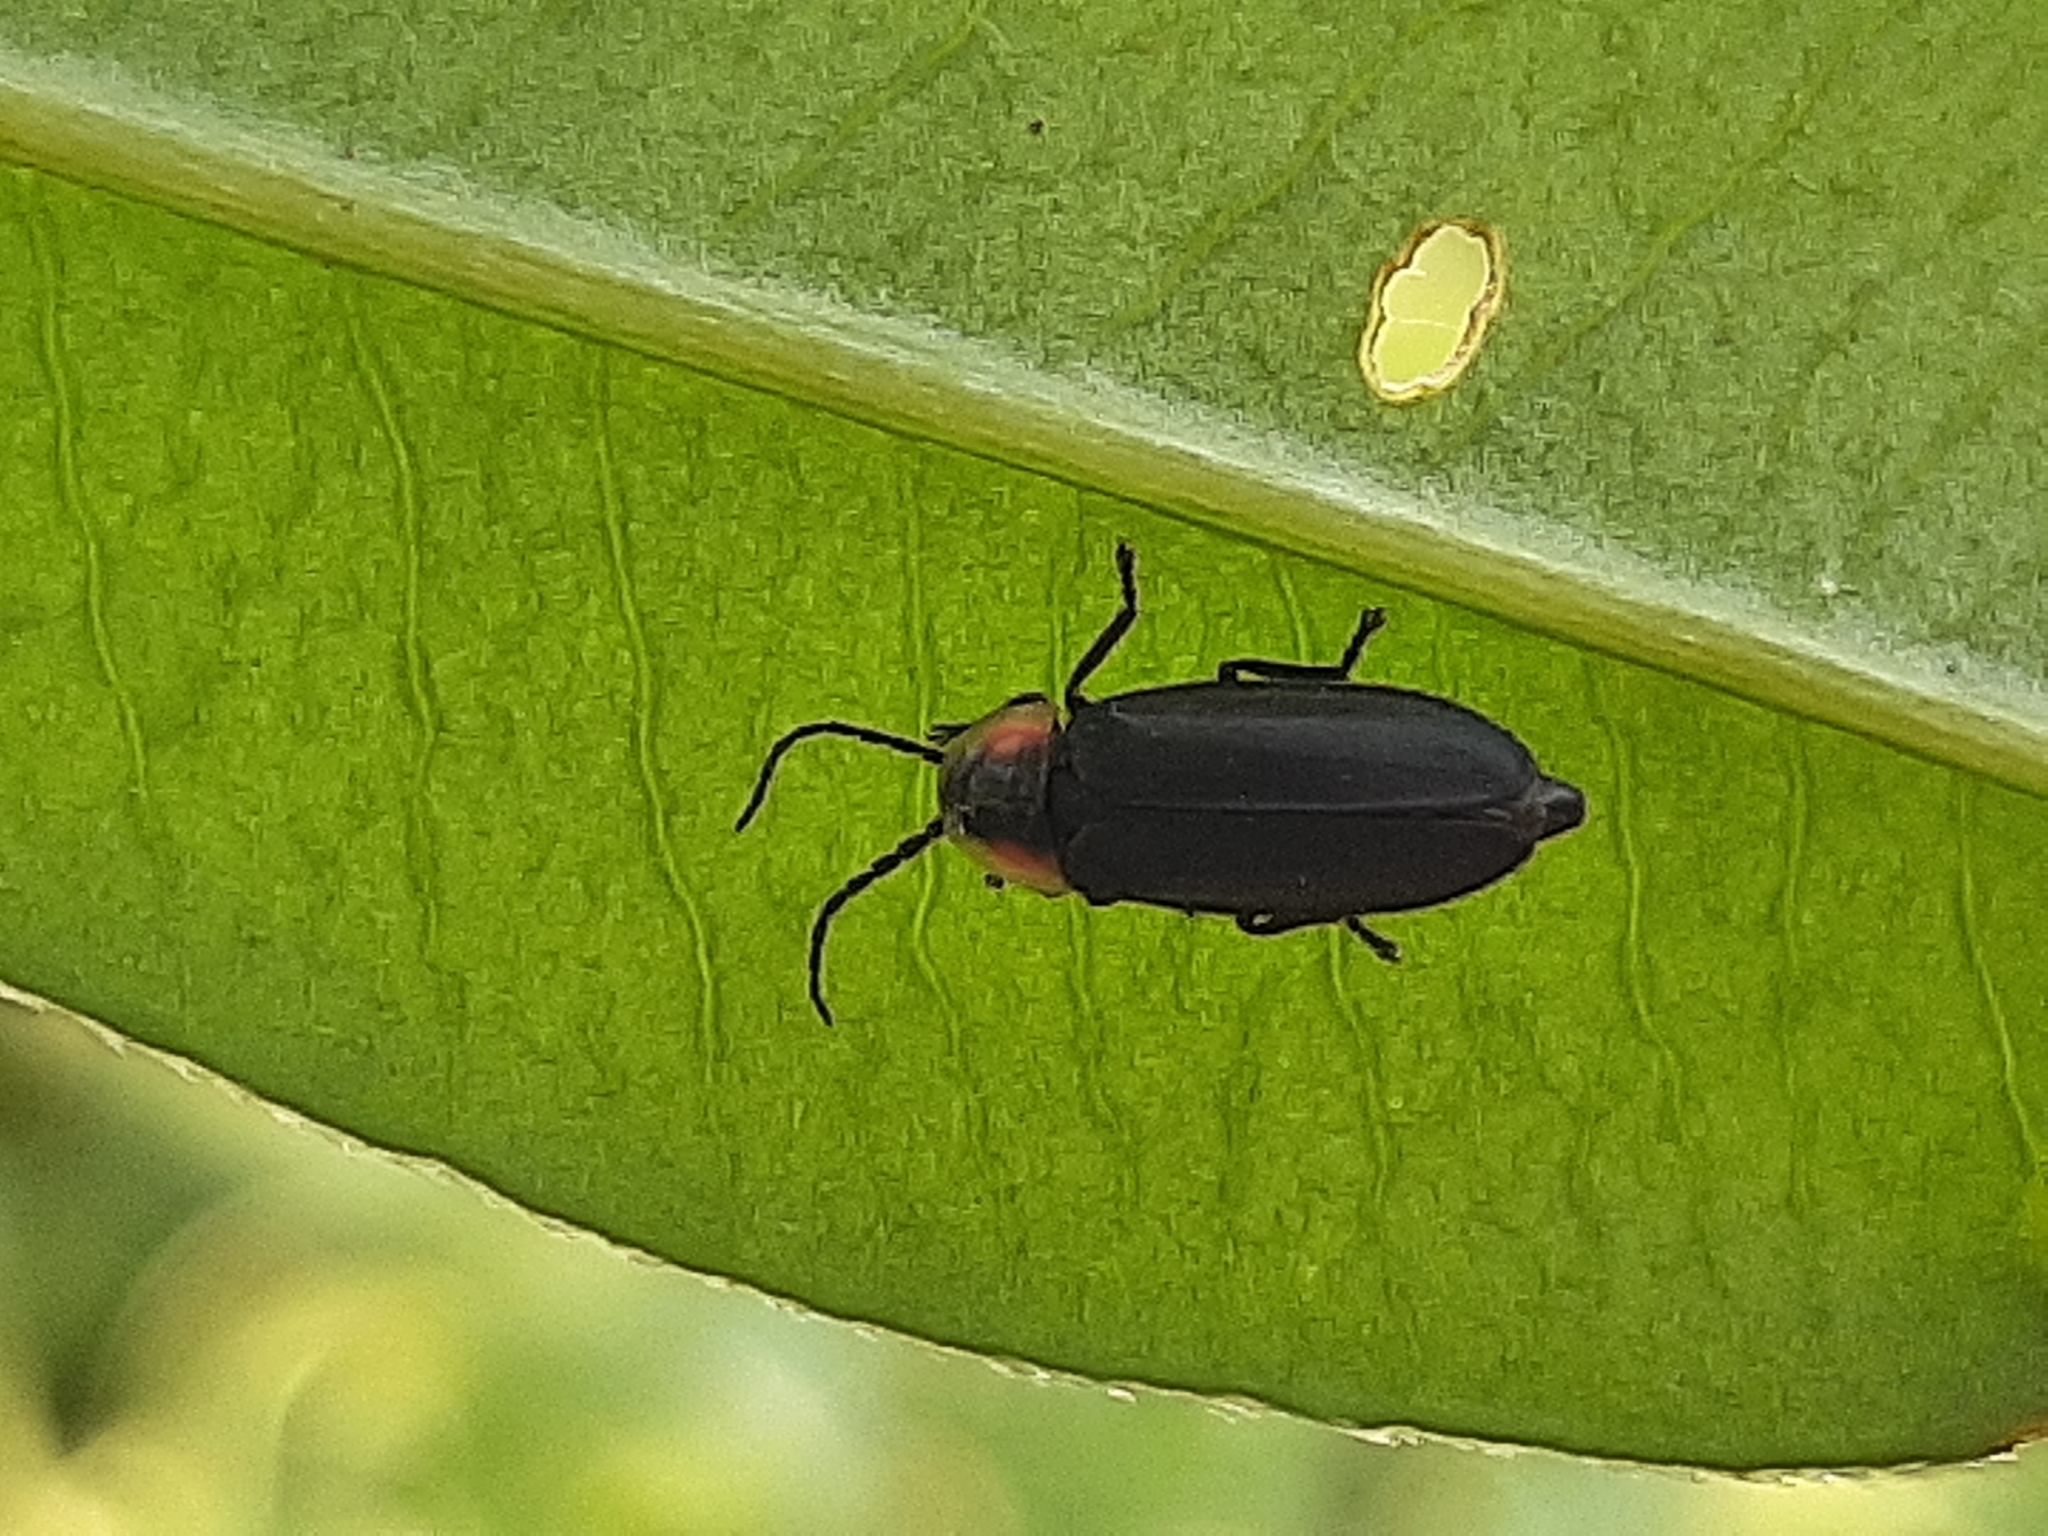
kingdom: Animalia
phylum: Arthropoda
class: Insecta
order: Coleoptera
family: Lampyridae
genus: Lucidota
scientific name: Lucidota atra
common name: Black firefly
